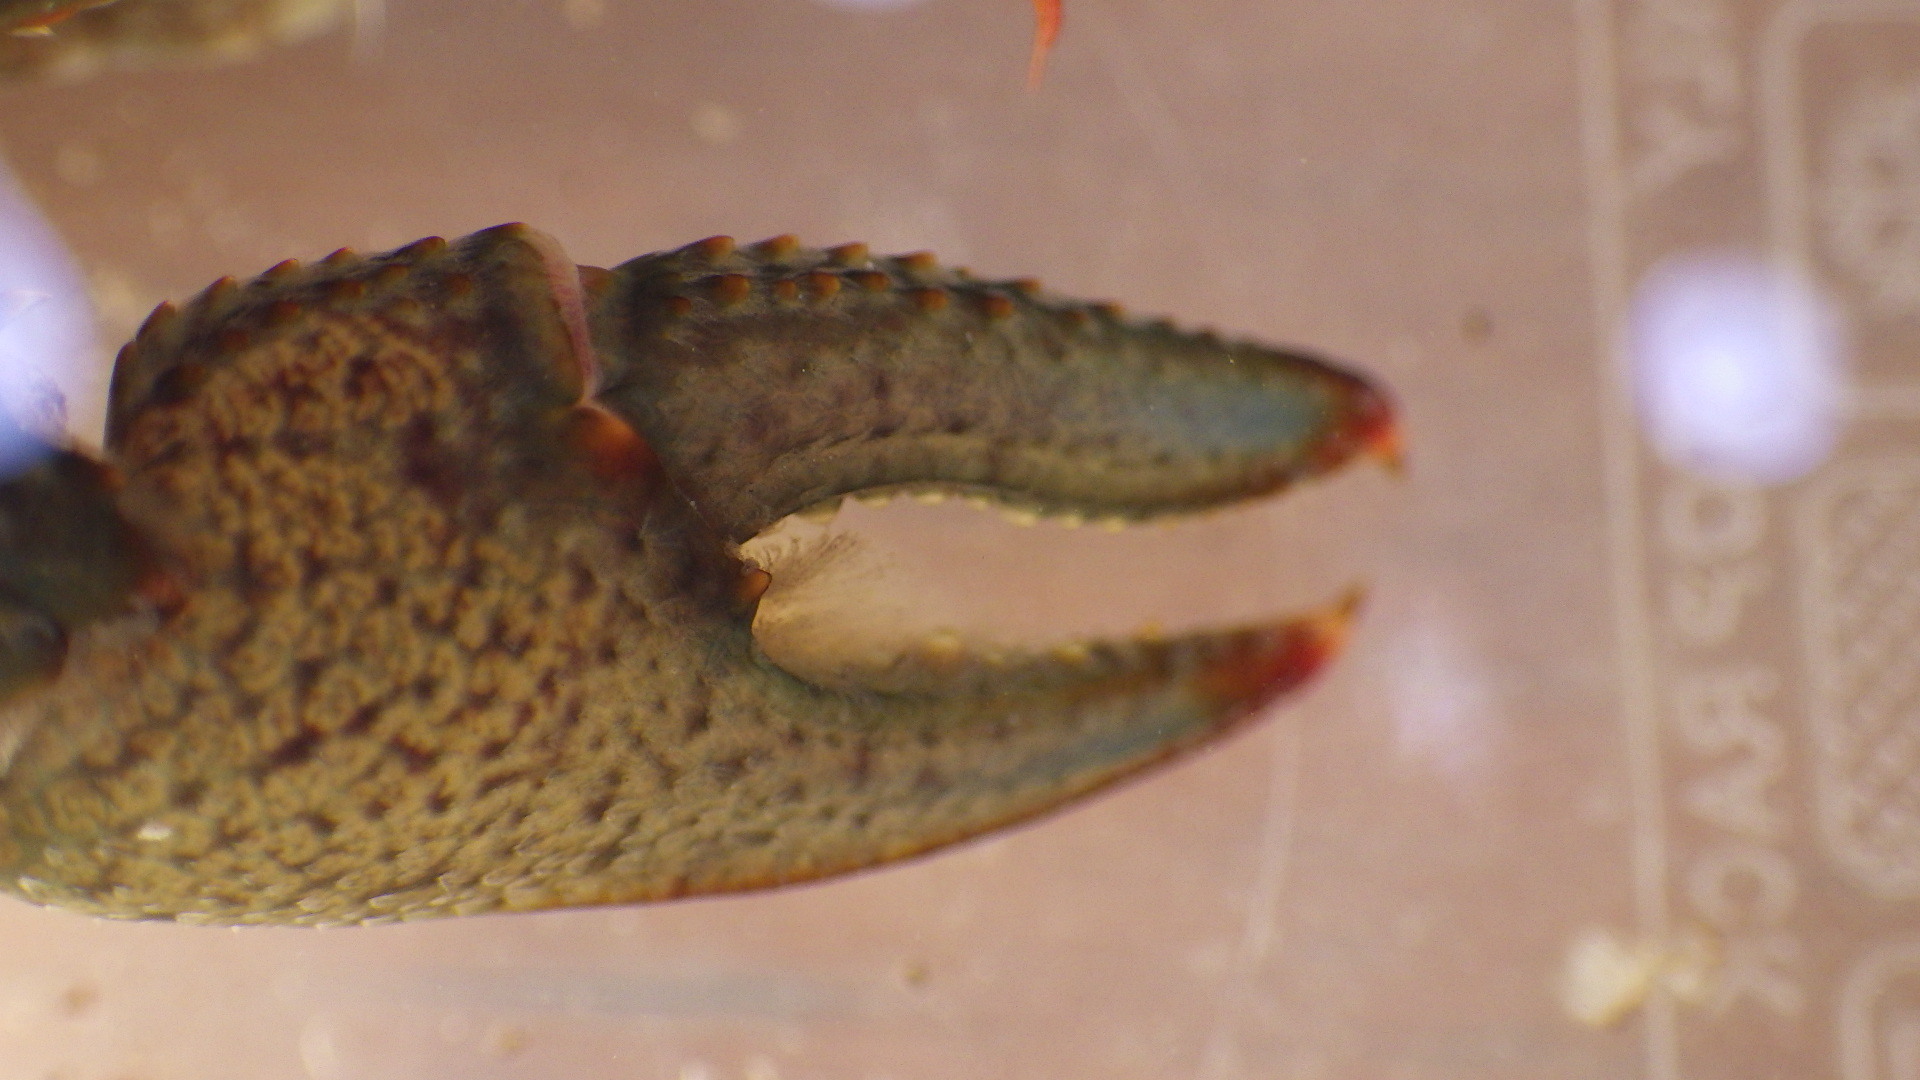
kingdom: Animalia
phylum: Arthropoda
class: Malacostraca
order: Decapoda
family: Cambaridae
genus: Faxonius
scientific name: Faxonius virilis
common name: Virile crayfish
